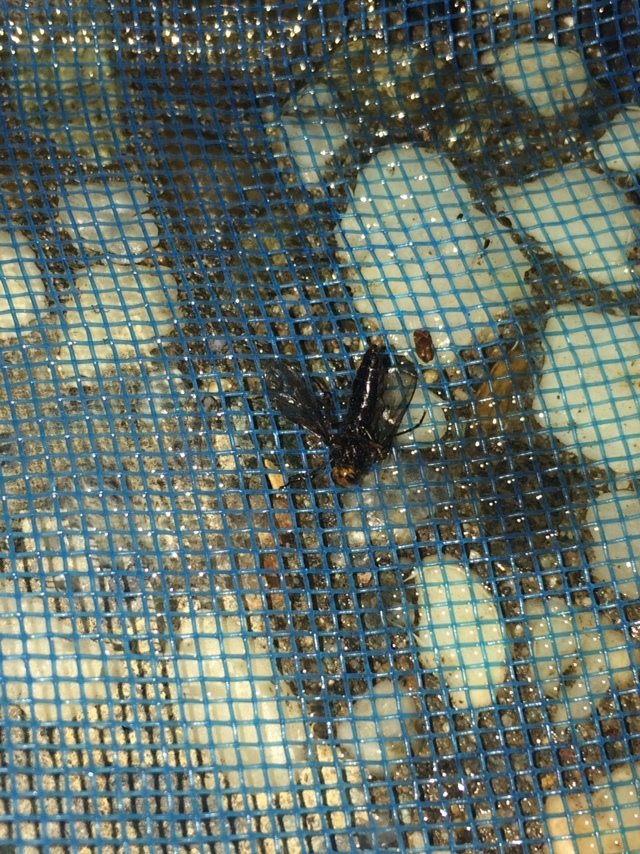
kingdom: Animalia
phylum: Arthropoda
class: Insecta
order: Diptera
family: Stratiomyidae
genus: Inopus
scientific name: Inopus rubriceps
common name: Soldier fly
